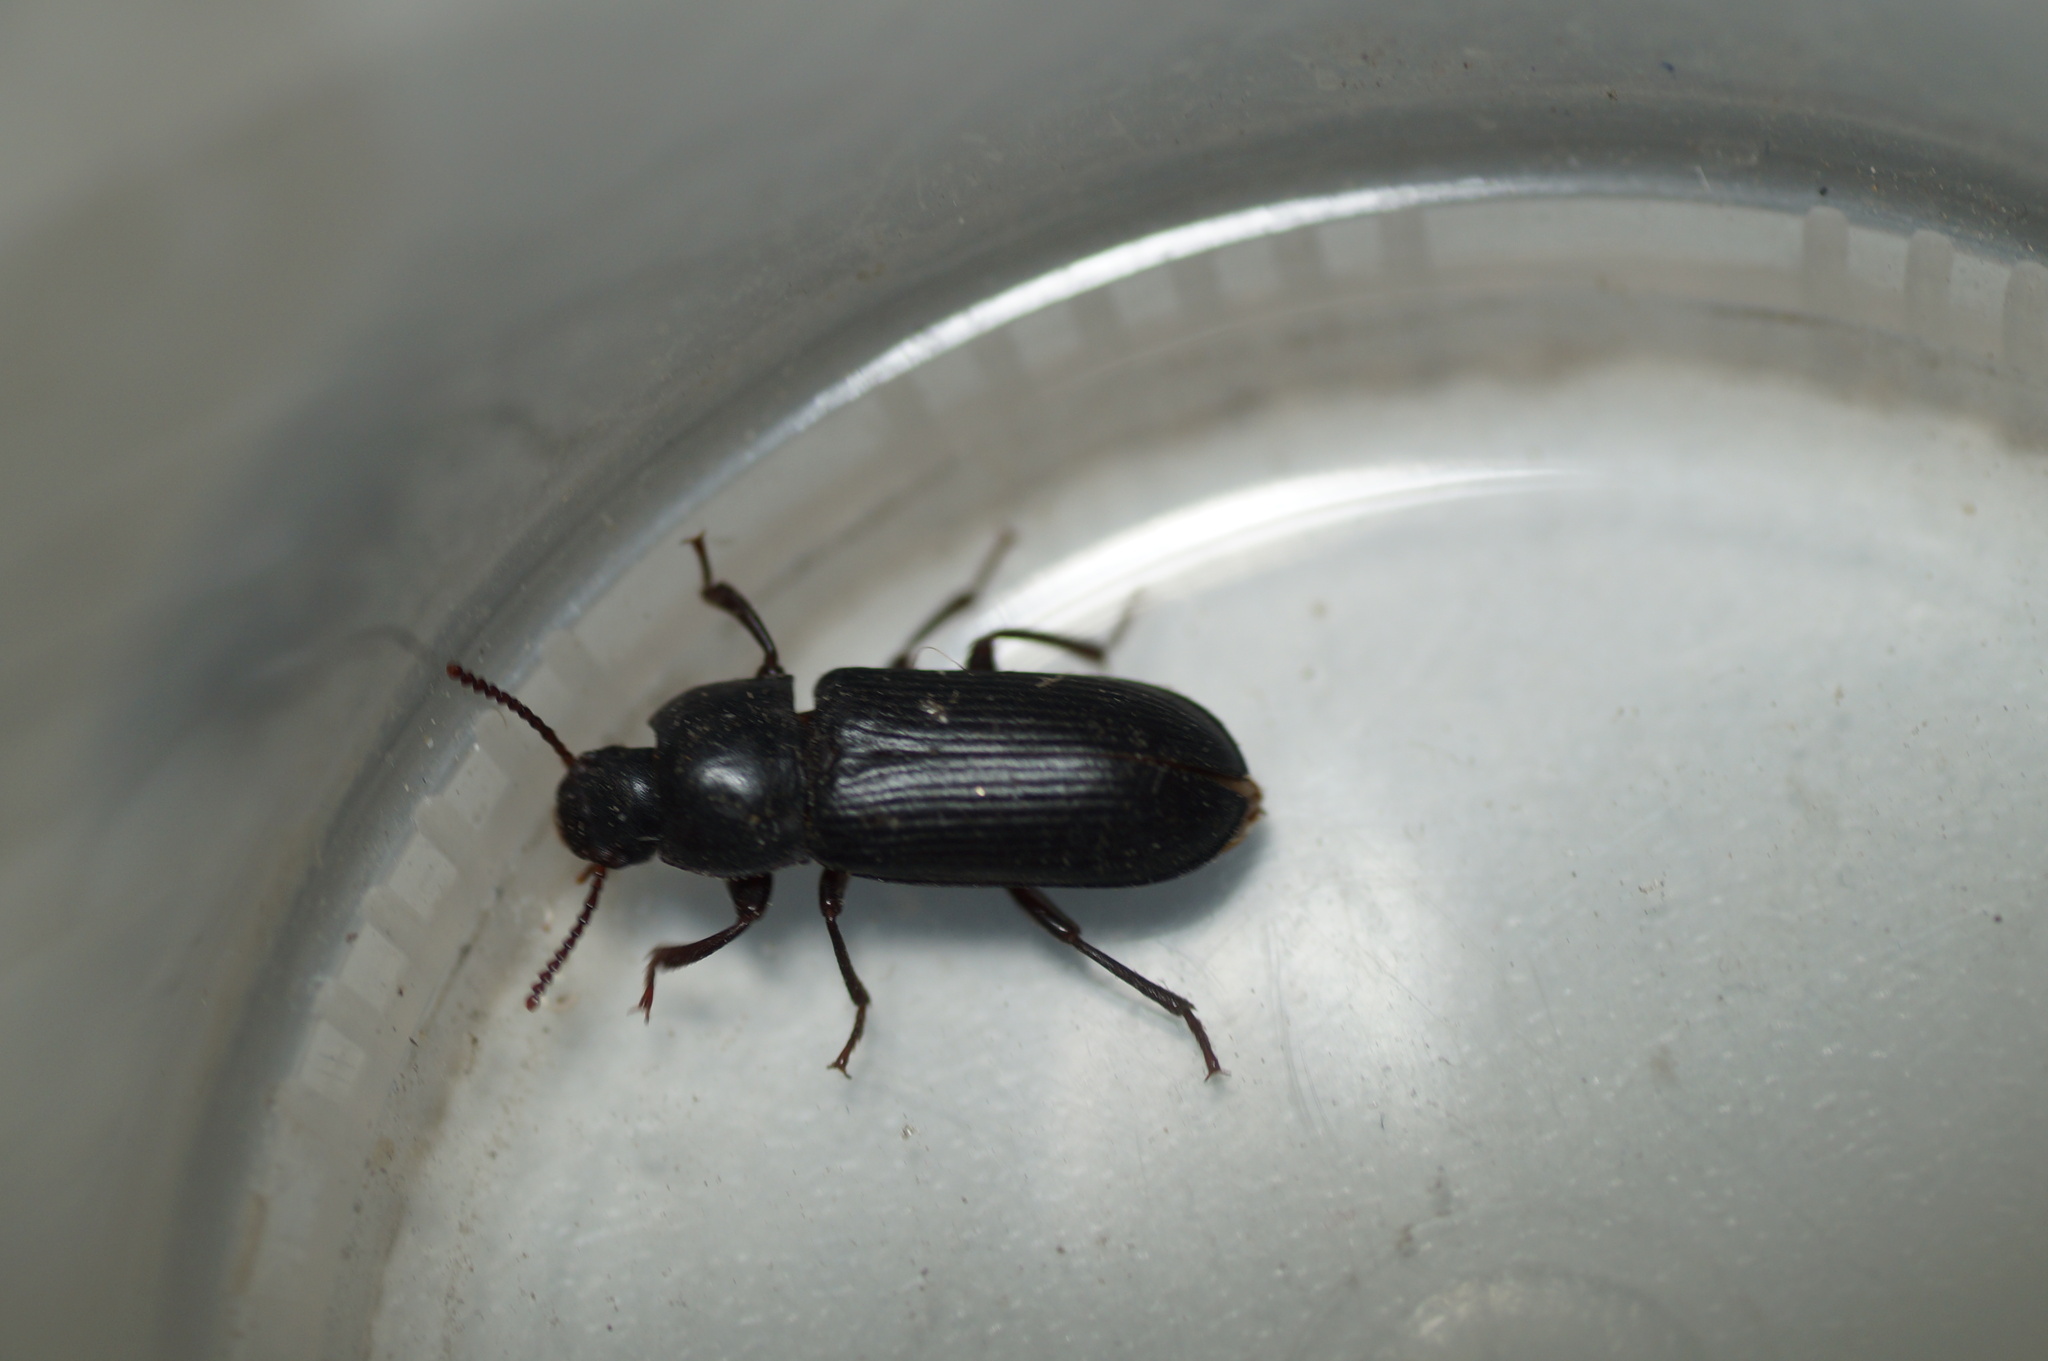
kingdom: Animalia
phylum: Arthropoda
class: Insecta
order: Coleoptera
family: Tenebrionidae
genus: Tenebrio
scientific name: Tenebrio molitor
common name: Hardback beetle
